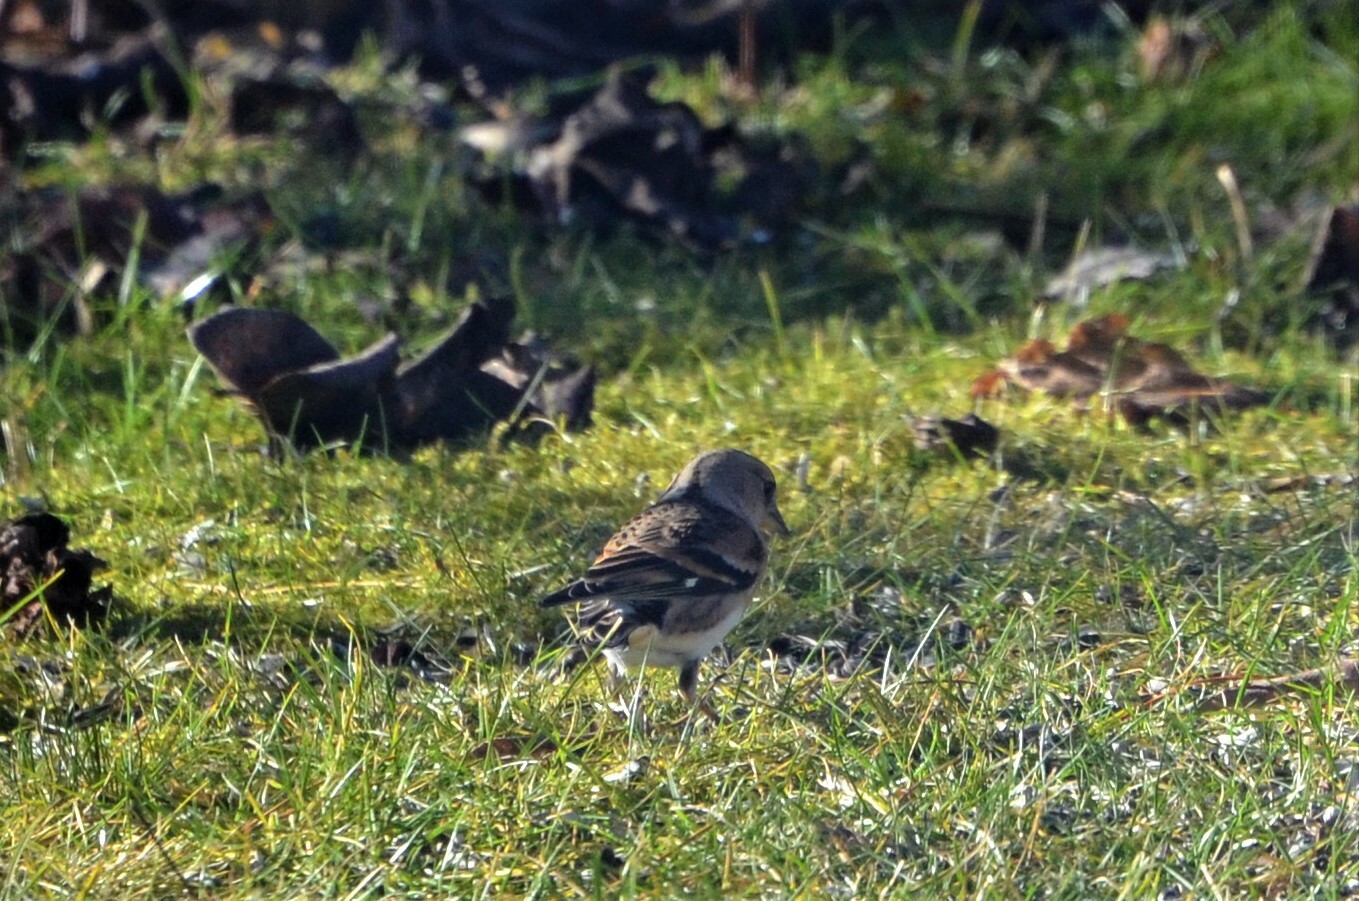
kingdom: Animalia
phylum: Chordata
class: Aves
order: Passeriformes
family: Fringillidae
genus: Fringilla
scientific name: Fringilla montifringilla
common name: Brambling
